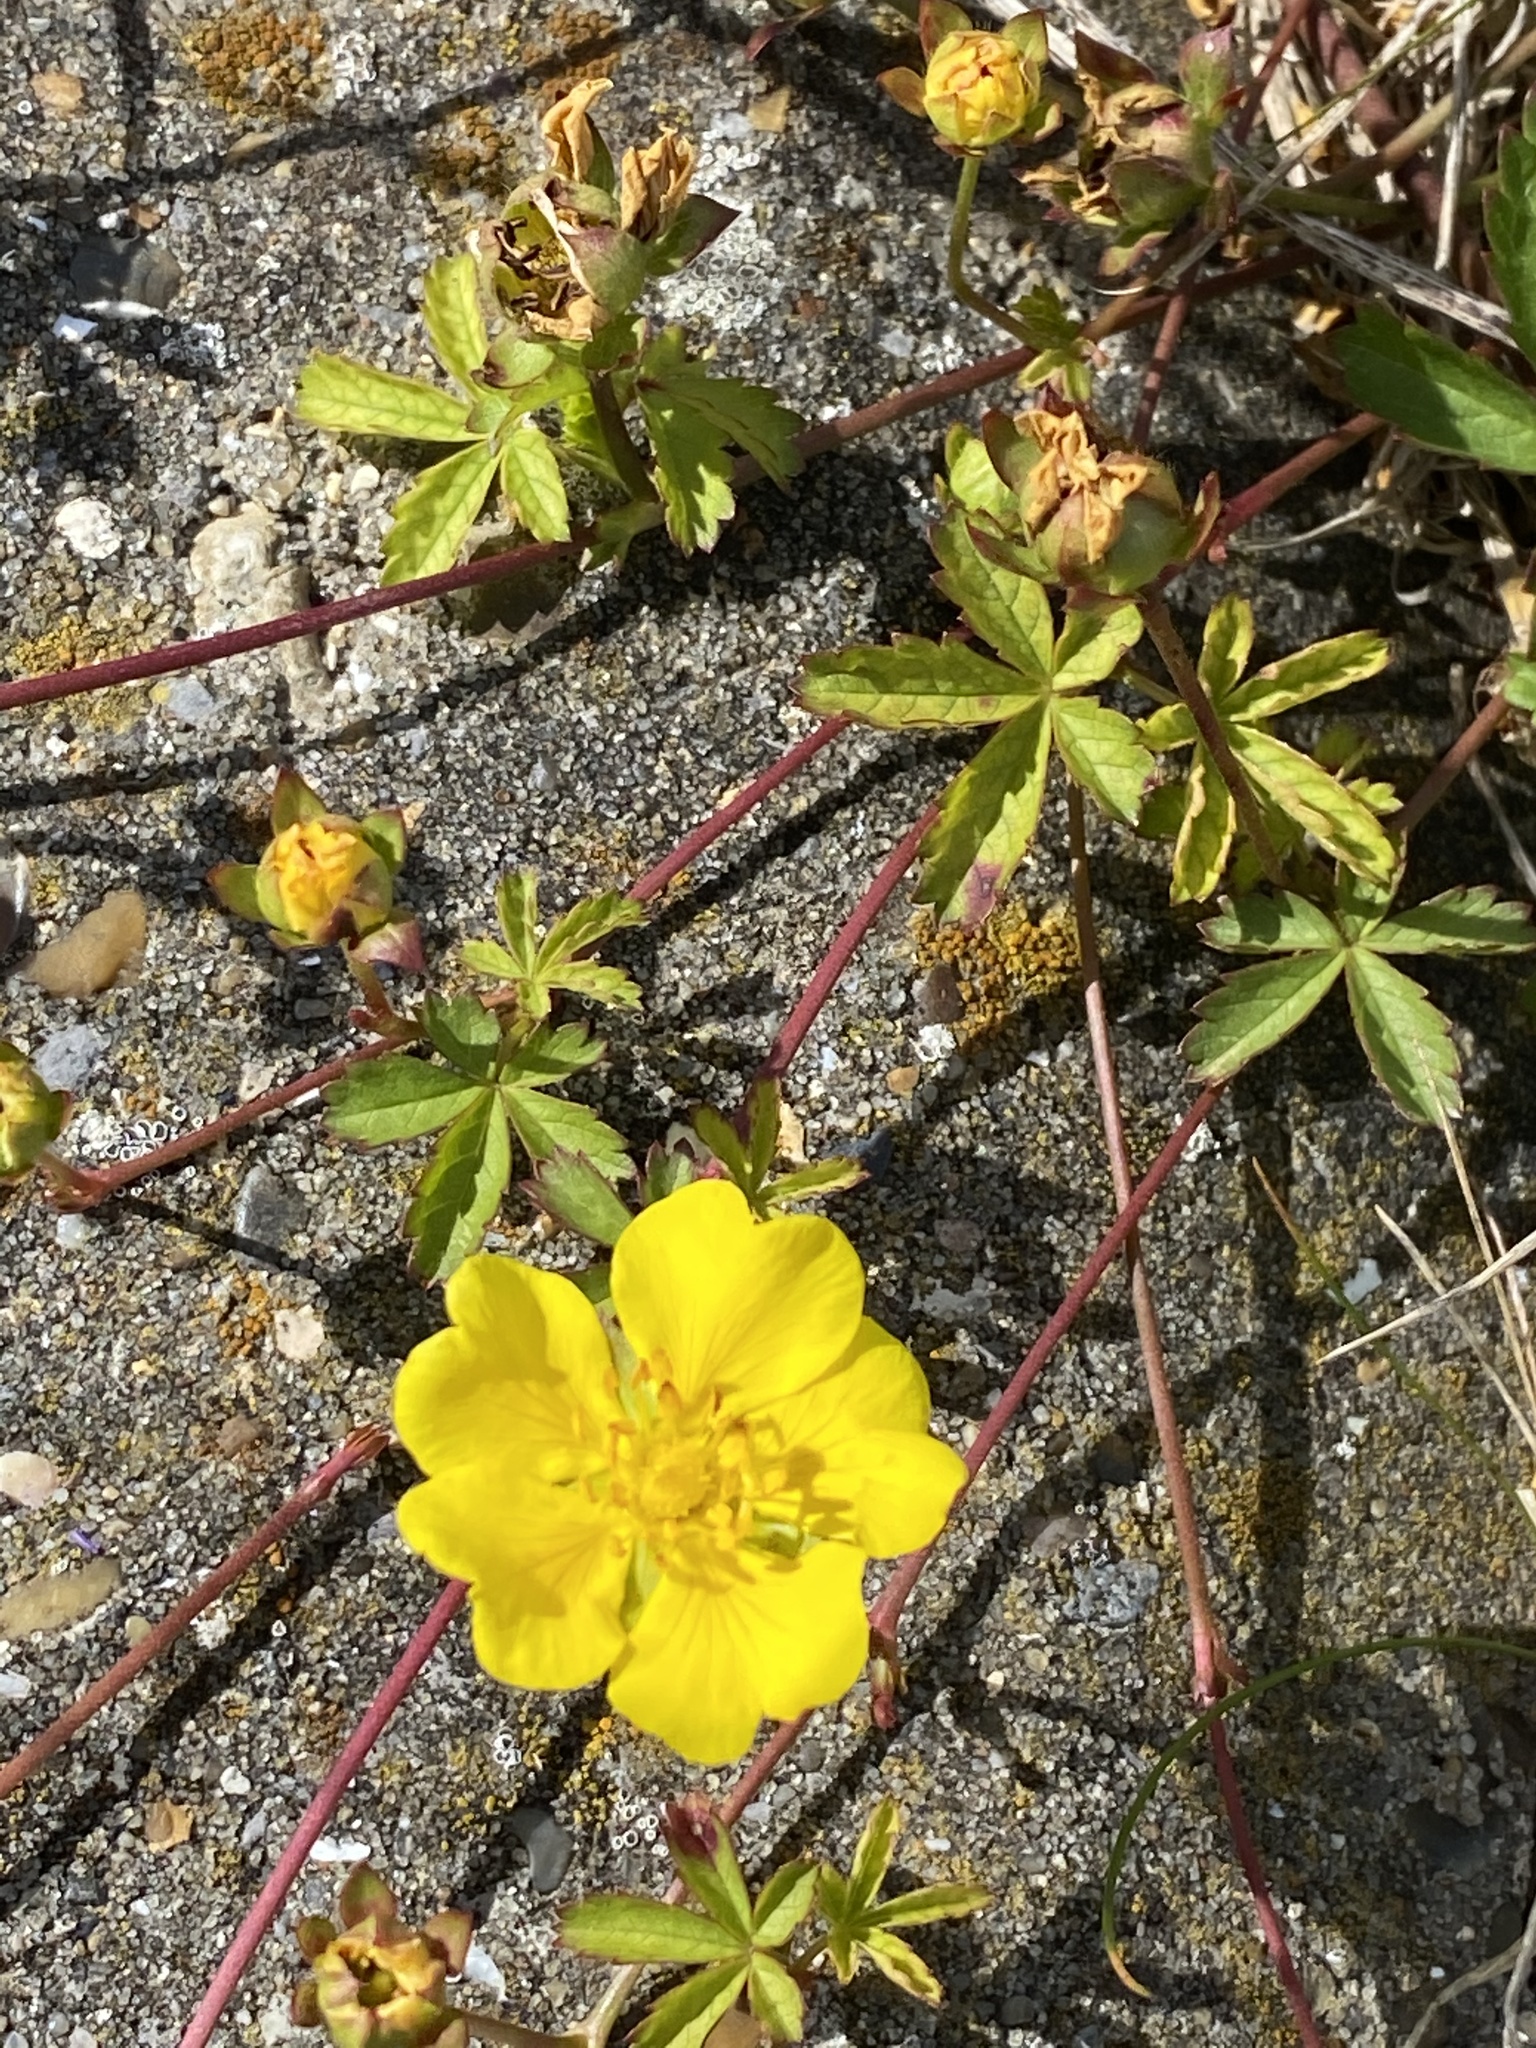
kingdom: Plantae
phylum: Tracheophyta
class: Magnoliopsida
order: Rosales
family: Rosaceae
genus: Potentilla
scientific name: Potentilla reptans
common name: Creeping cinquefoil
